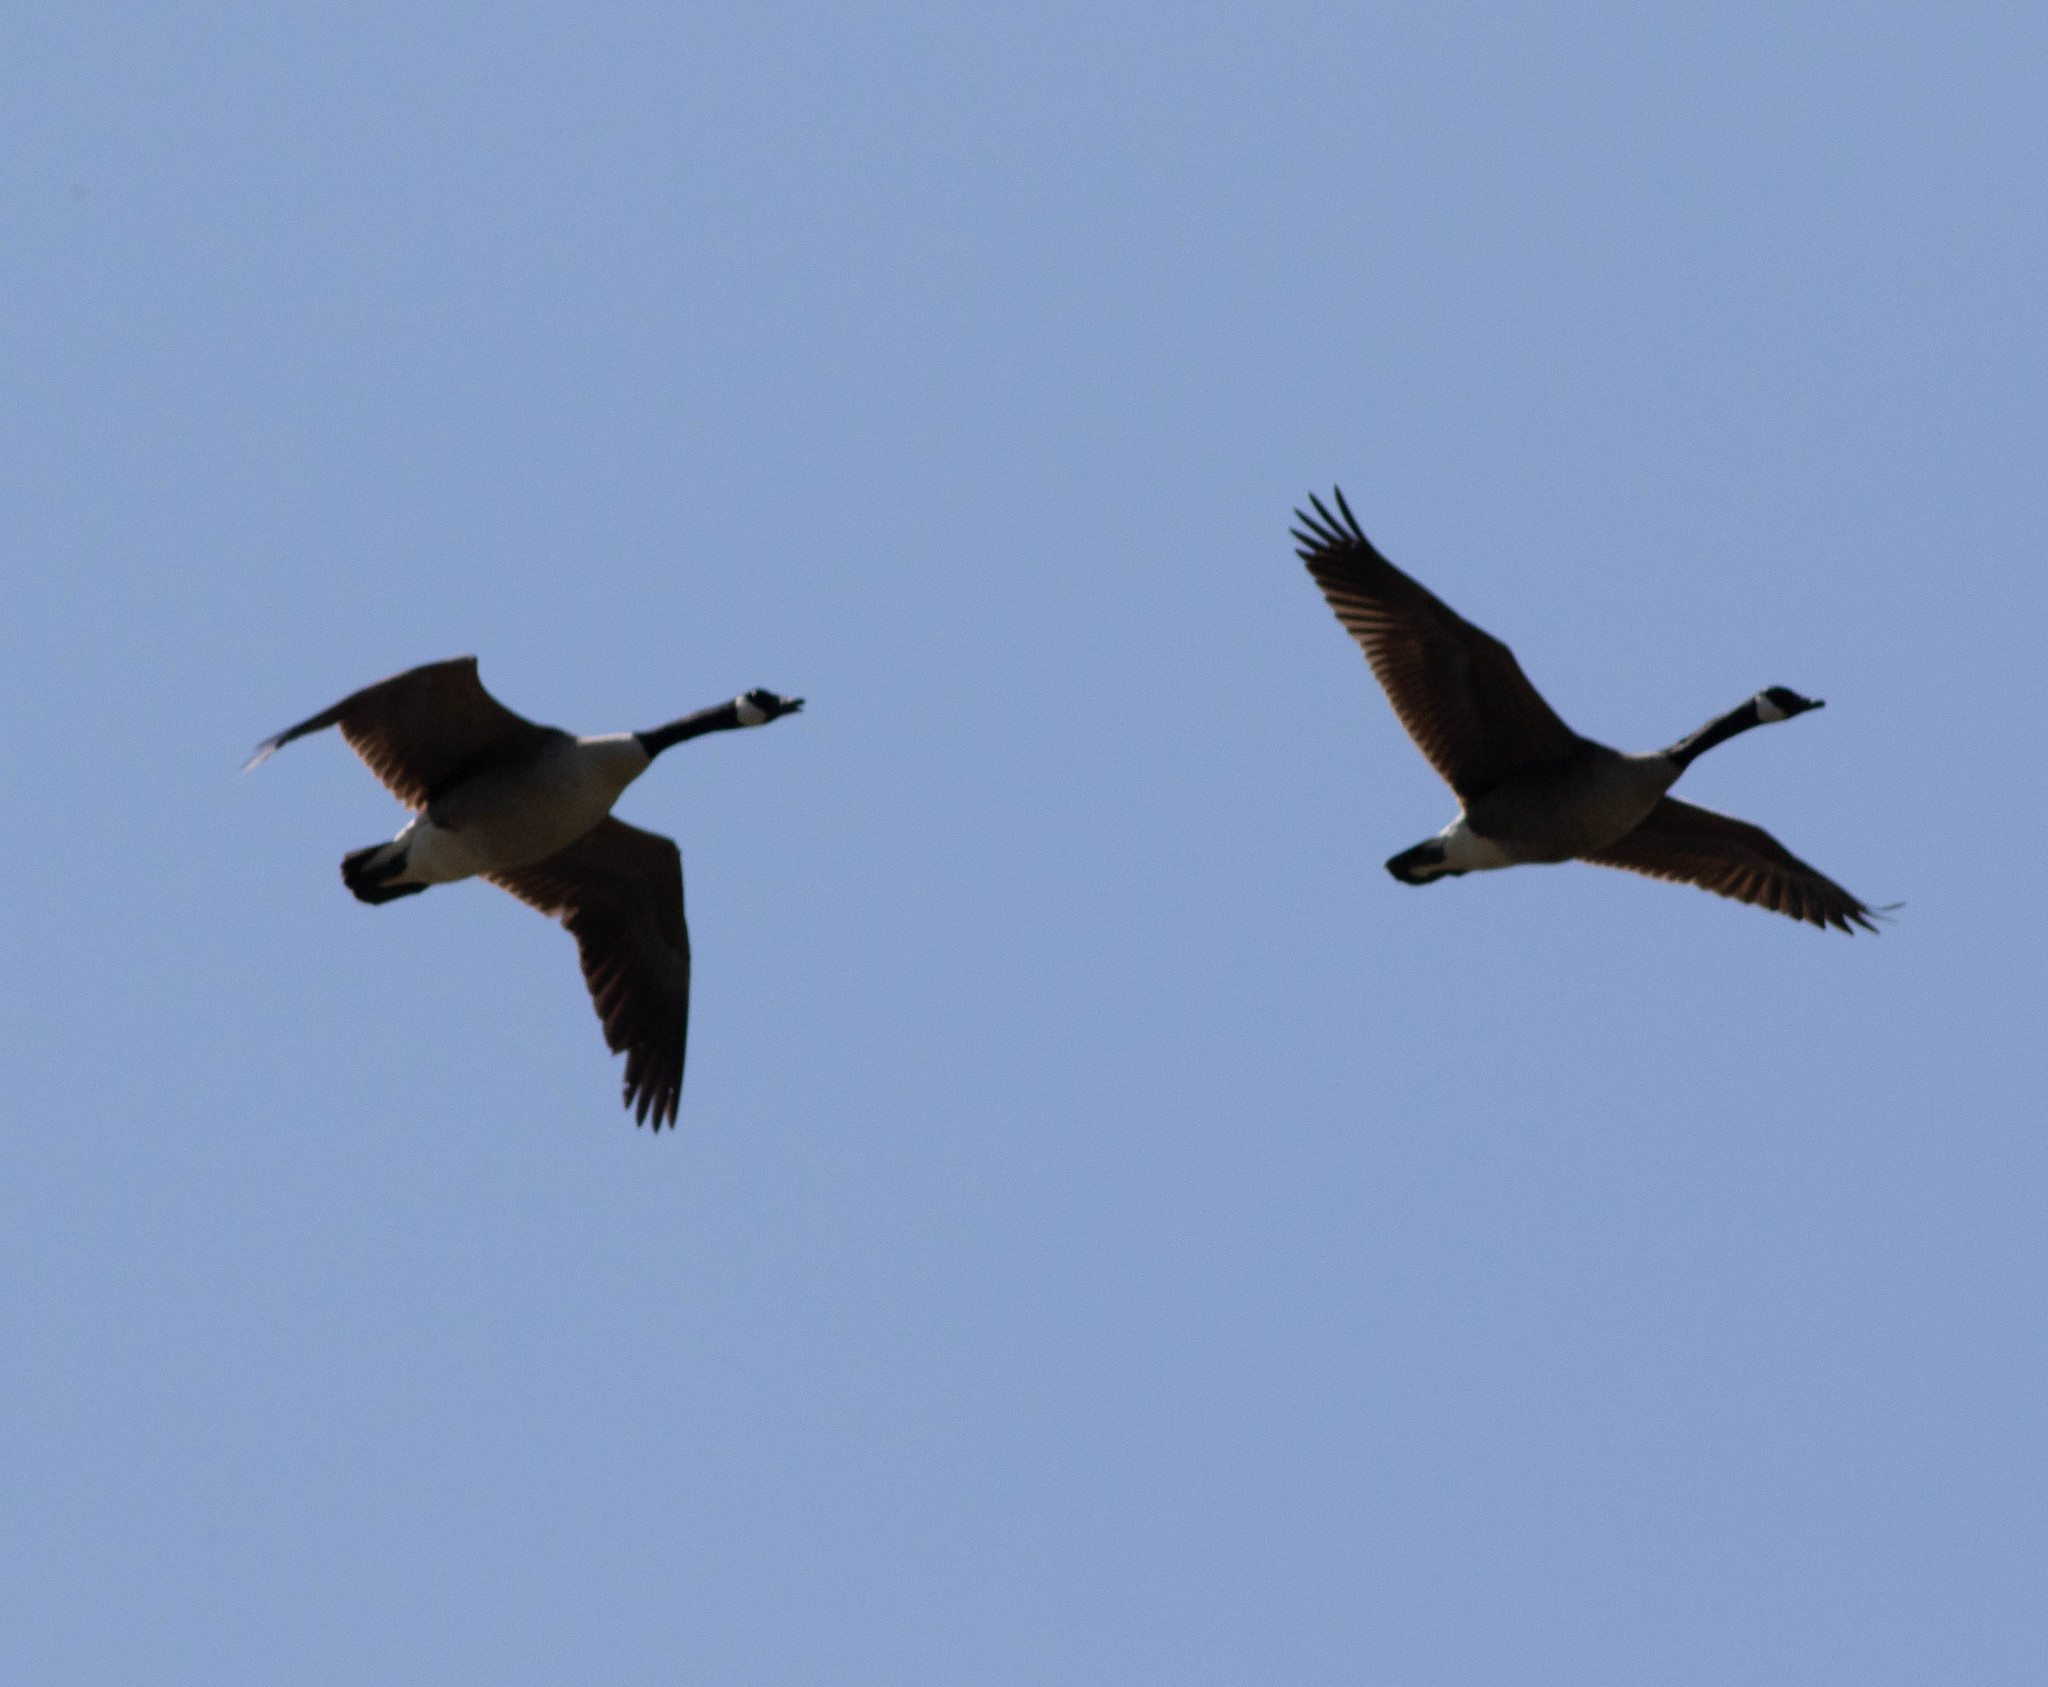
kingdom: Animalia
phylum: Chordata
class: Aves
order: Anseriformes
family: Anatidae
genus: Branta
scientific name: Branta canadensis
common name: Canada goose
